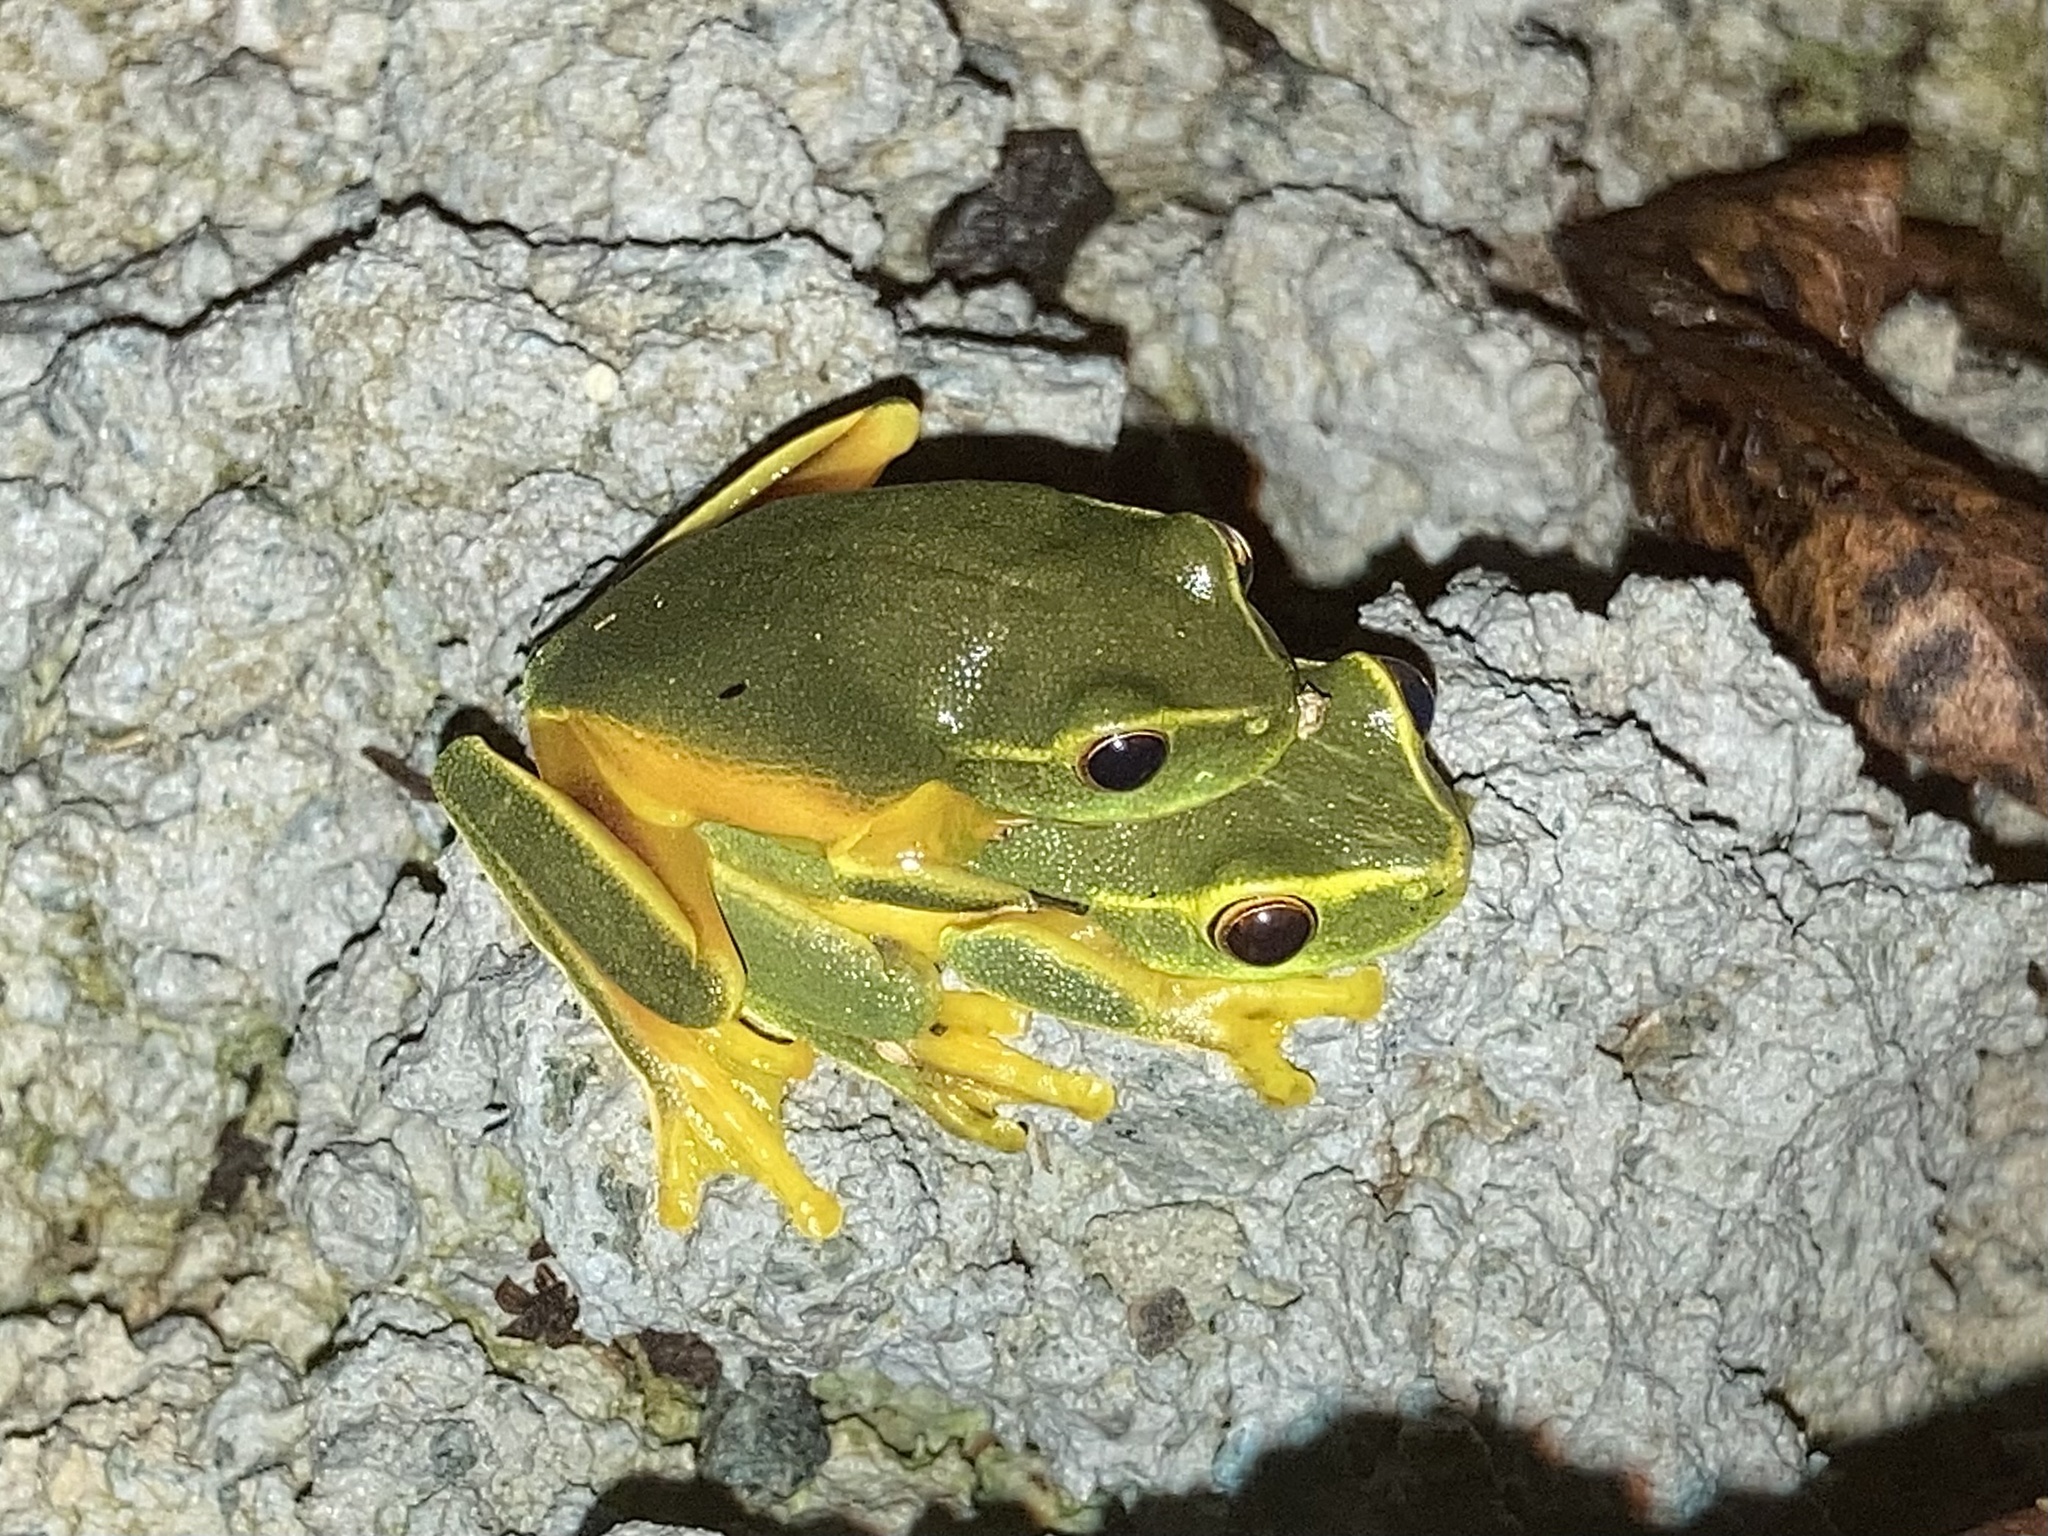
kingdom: Animalia
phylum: Chordata
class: Amphibia
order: Anura
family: Pelodryadidae
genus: Ranoidea
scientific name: Ranoidea gracilenta
